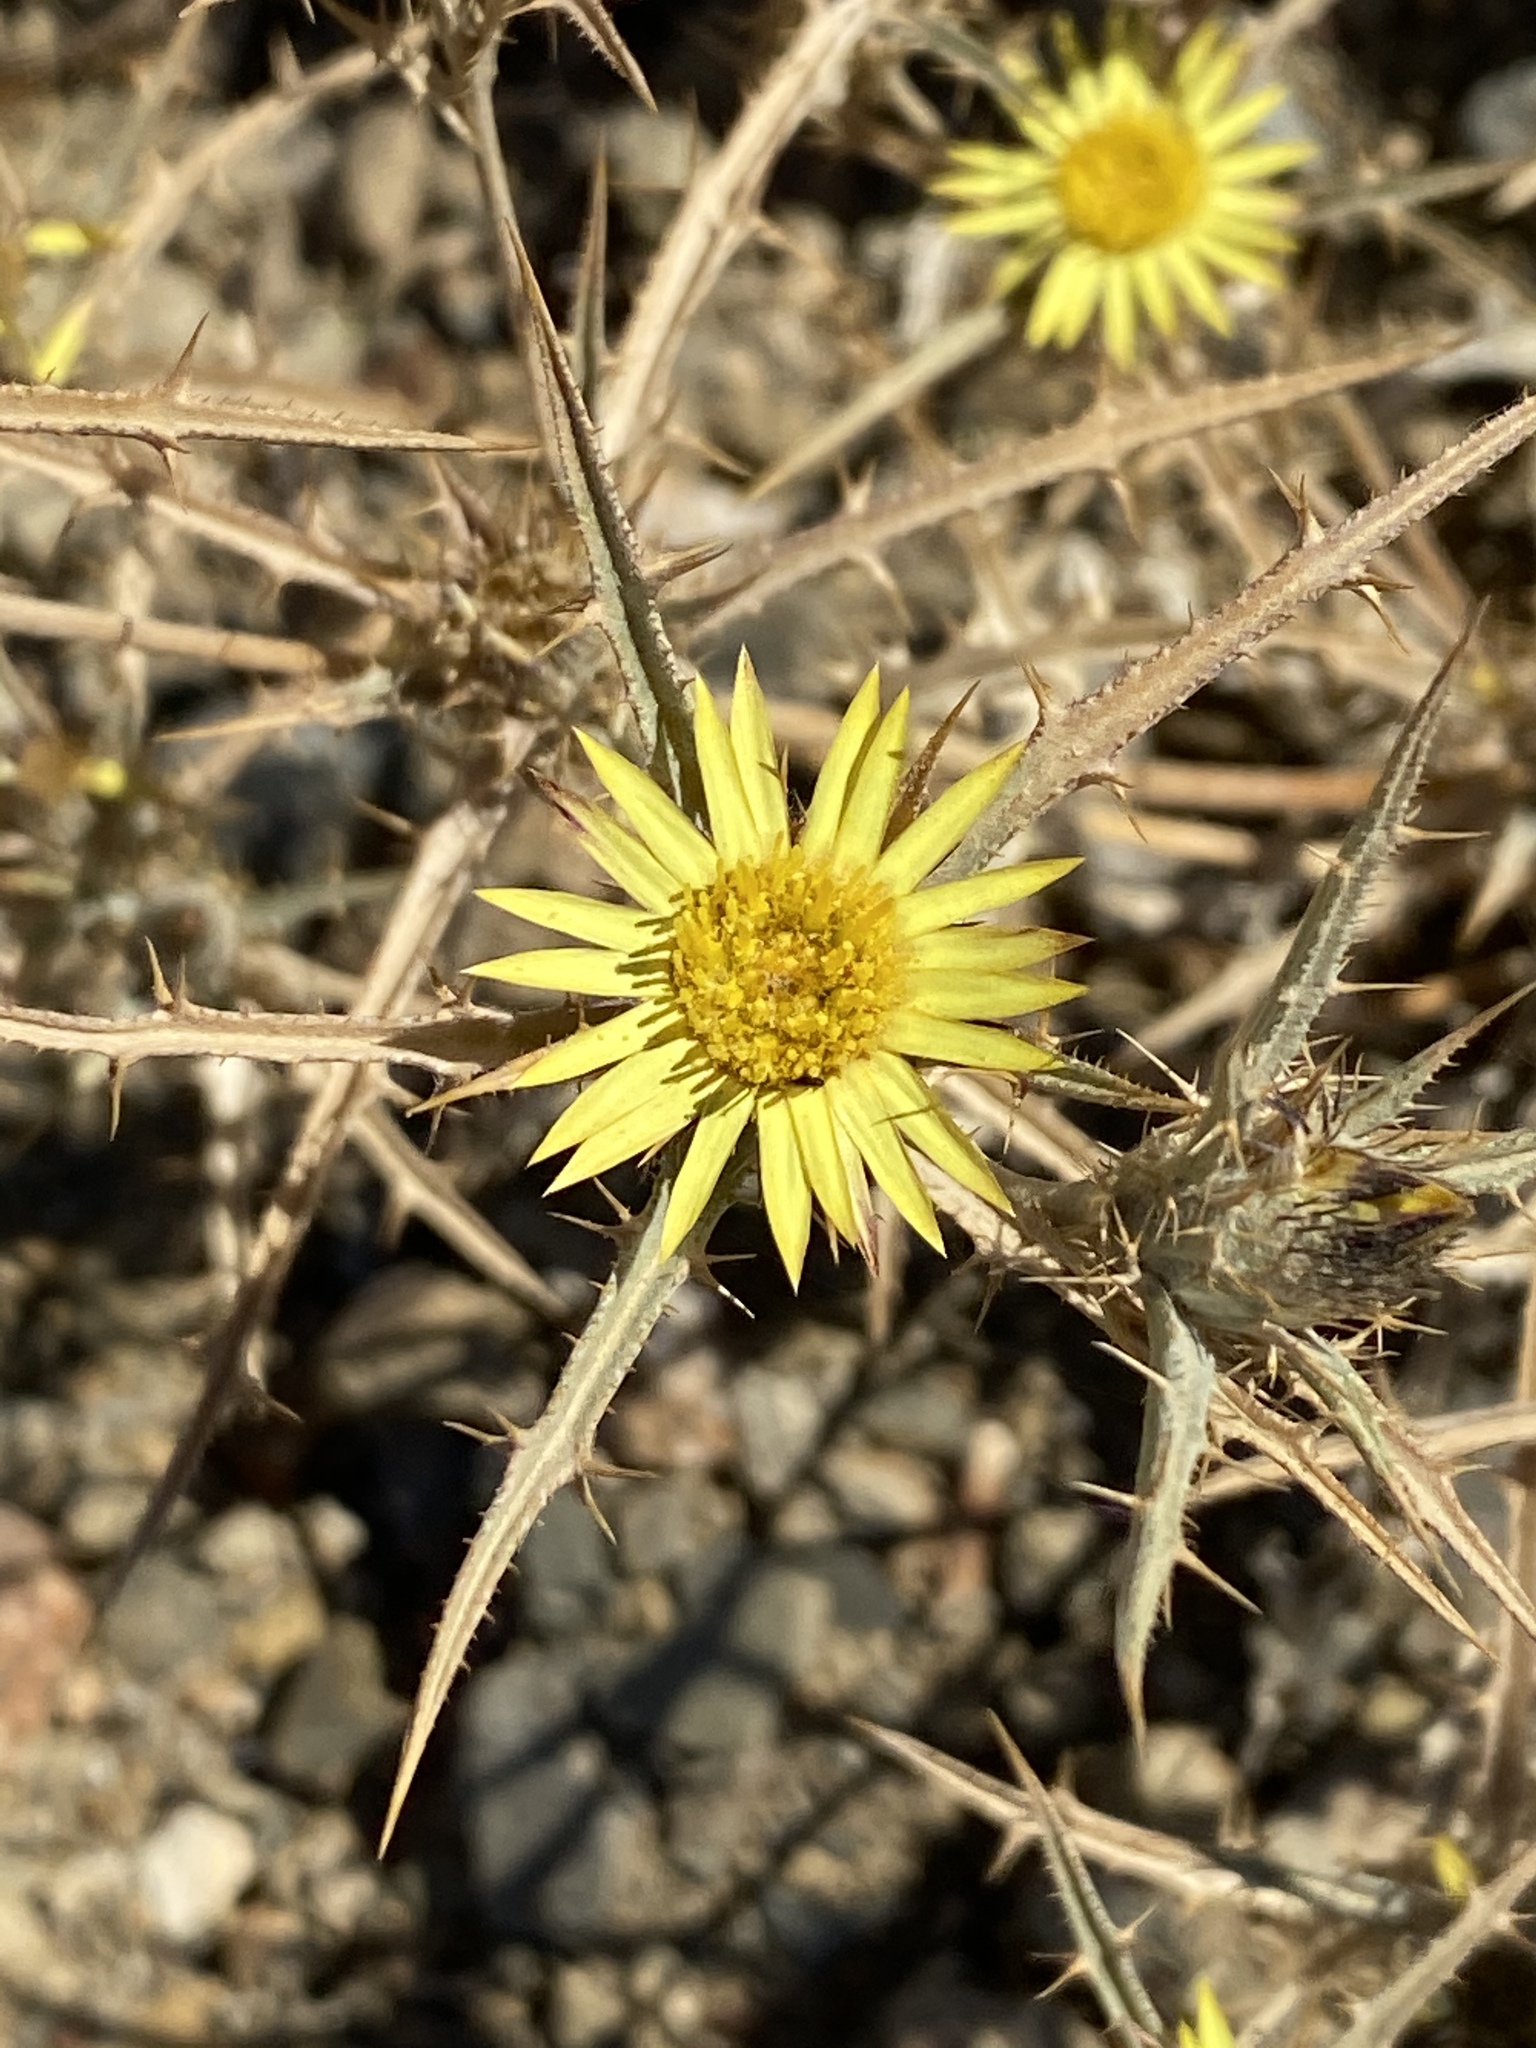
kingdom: Plantae
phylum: Tracheophyta
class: Magnoliopsida
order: Asterales
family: Asteraceae
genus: Carlina
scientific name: Carlina racemosa
